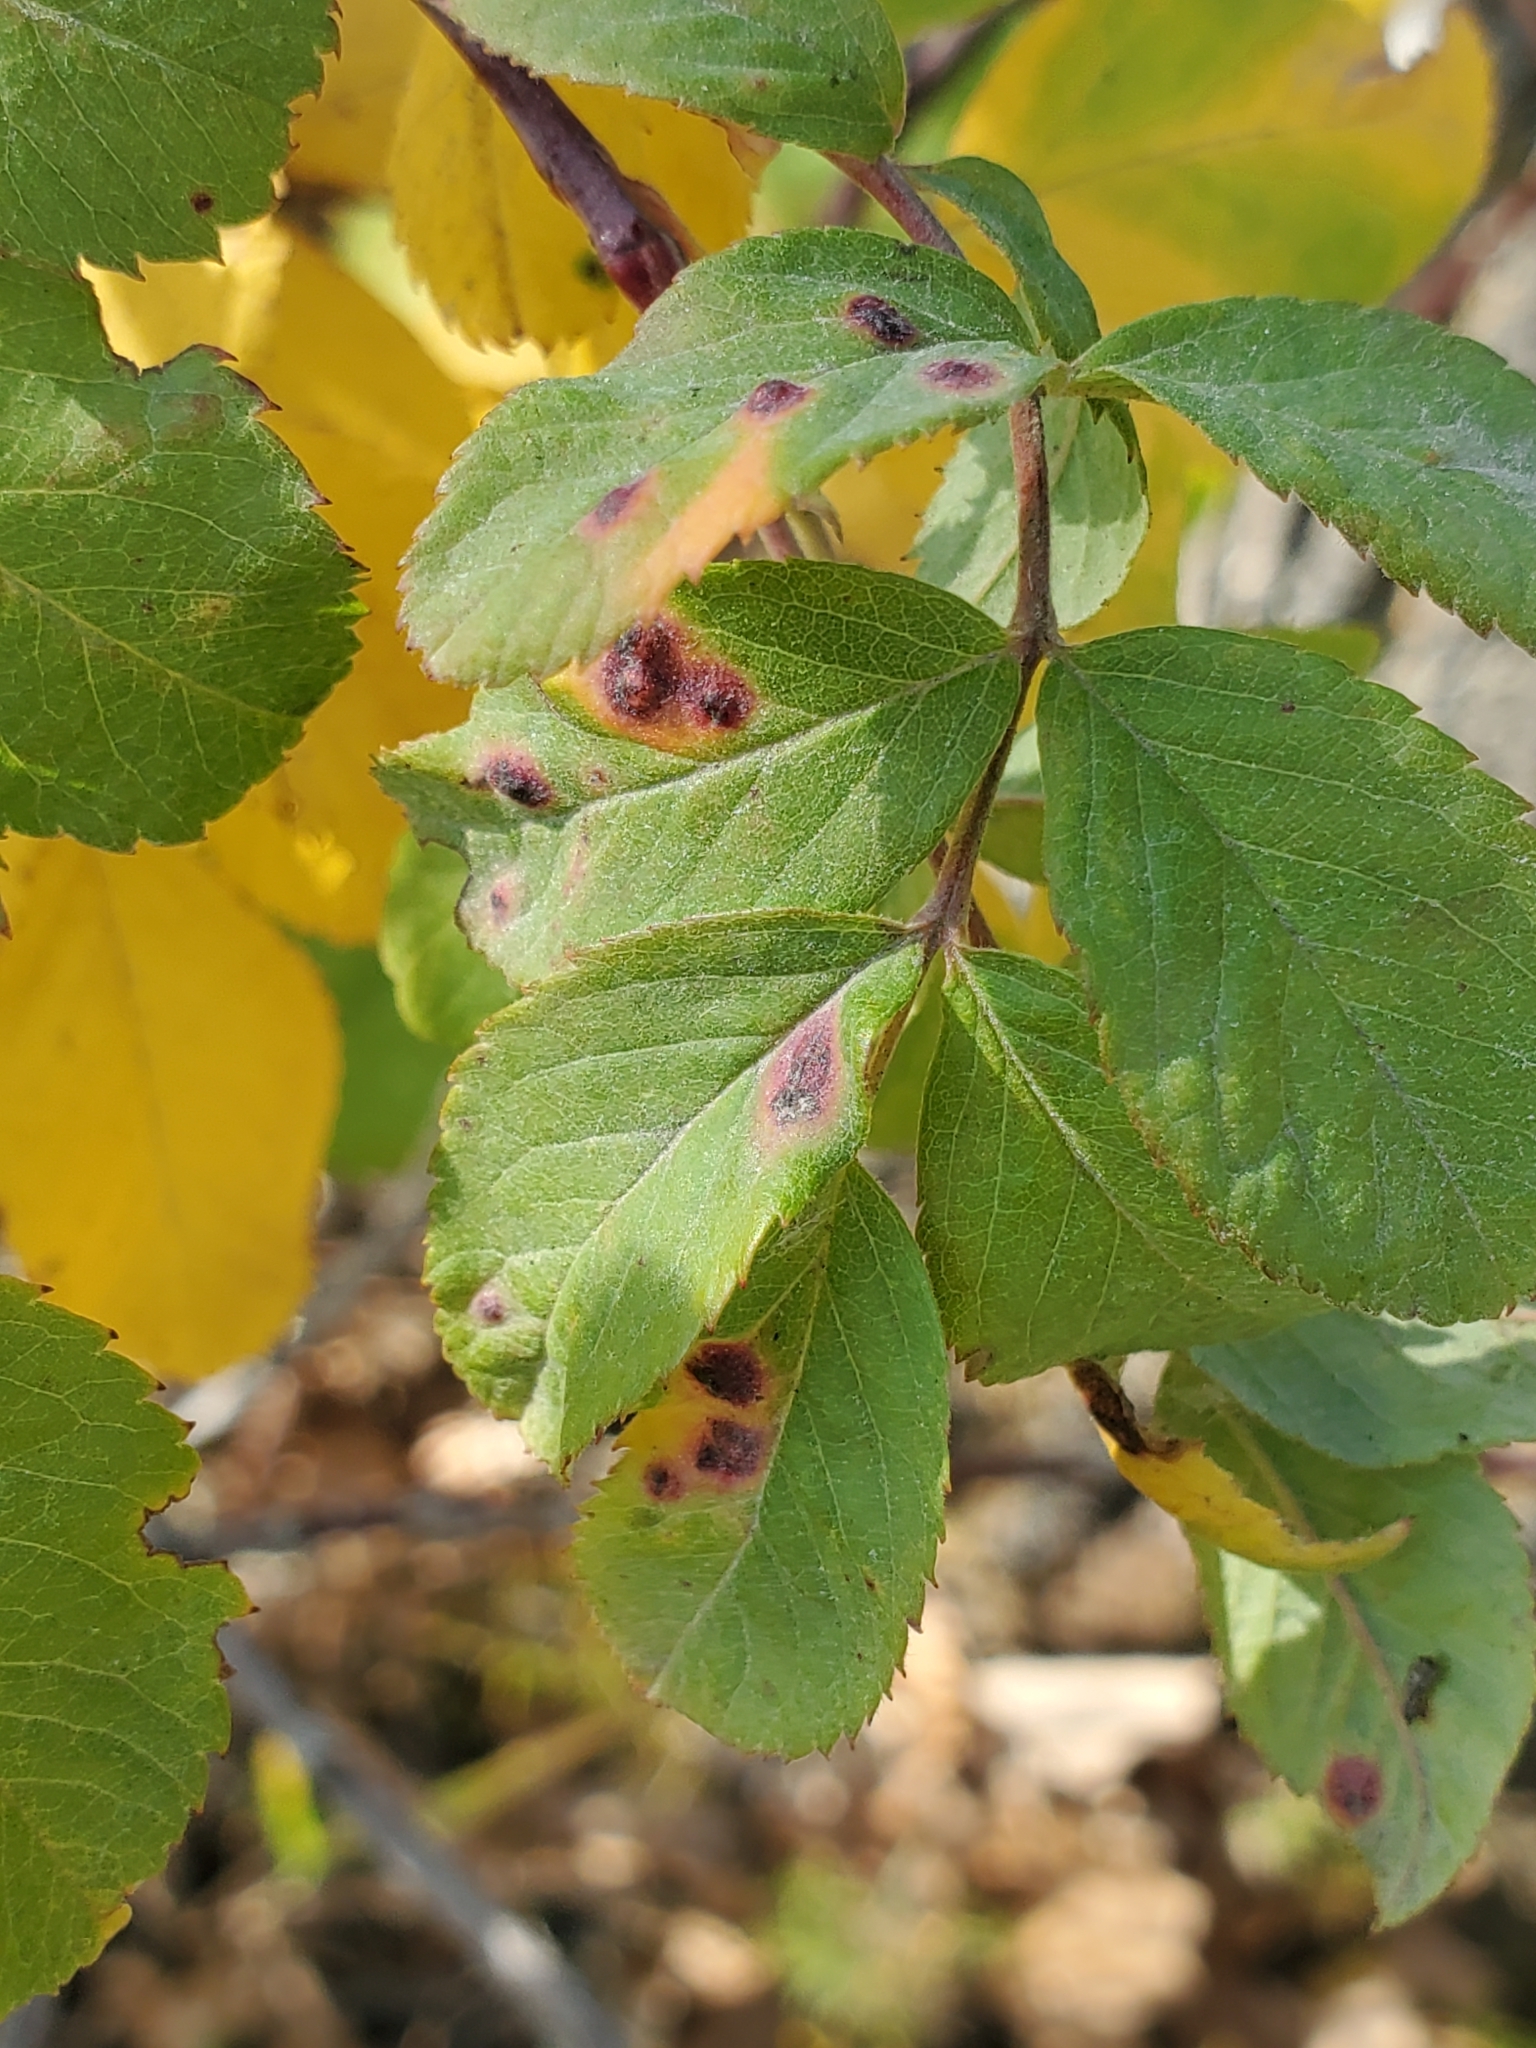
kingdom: Animalia
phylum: Arthropoda
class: Insecta
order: Hymenoptera
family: Cynipidae
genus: Diplolepis
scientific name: Diplolepis rosaefolii
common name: Blister-gall wasp
